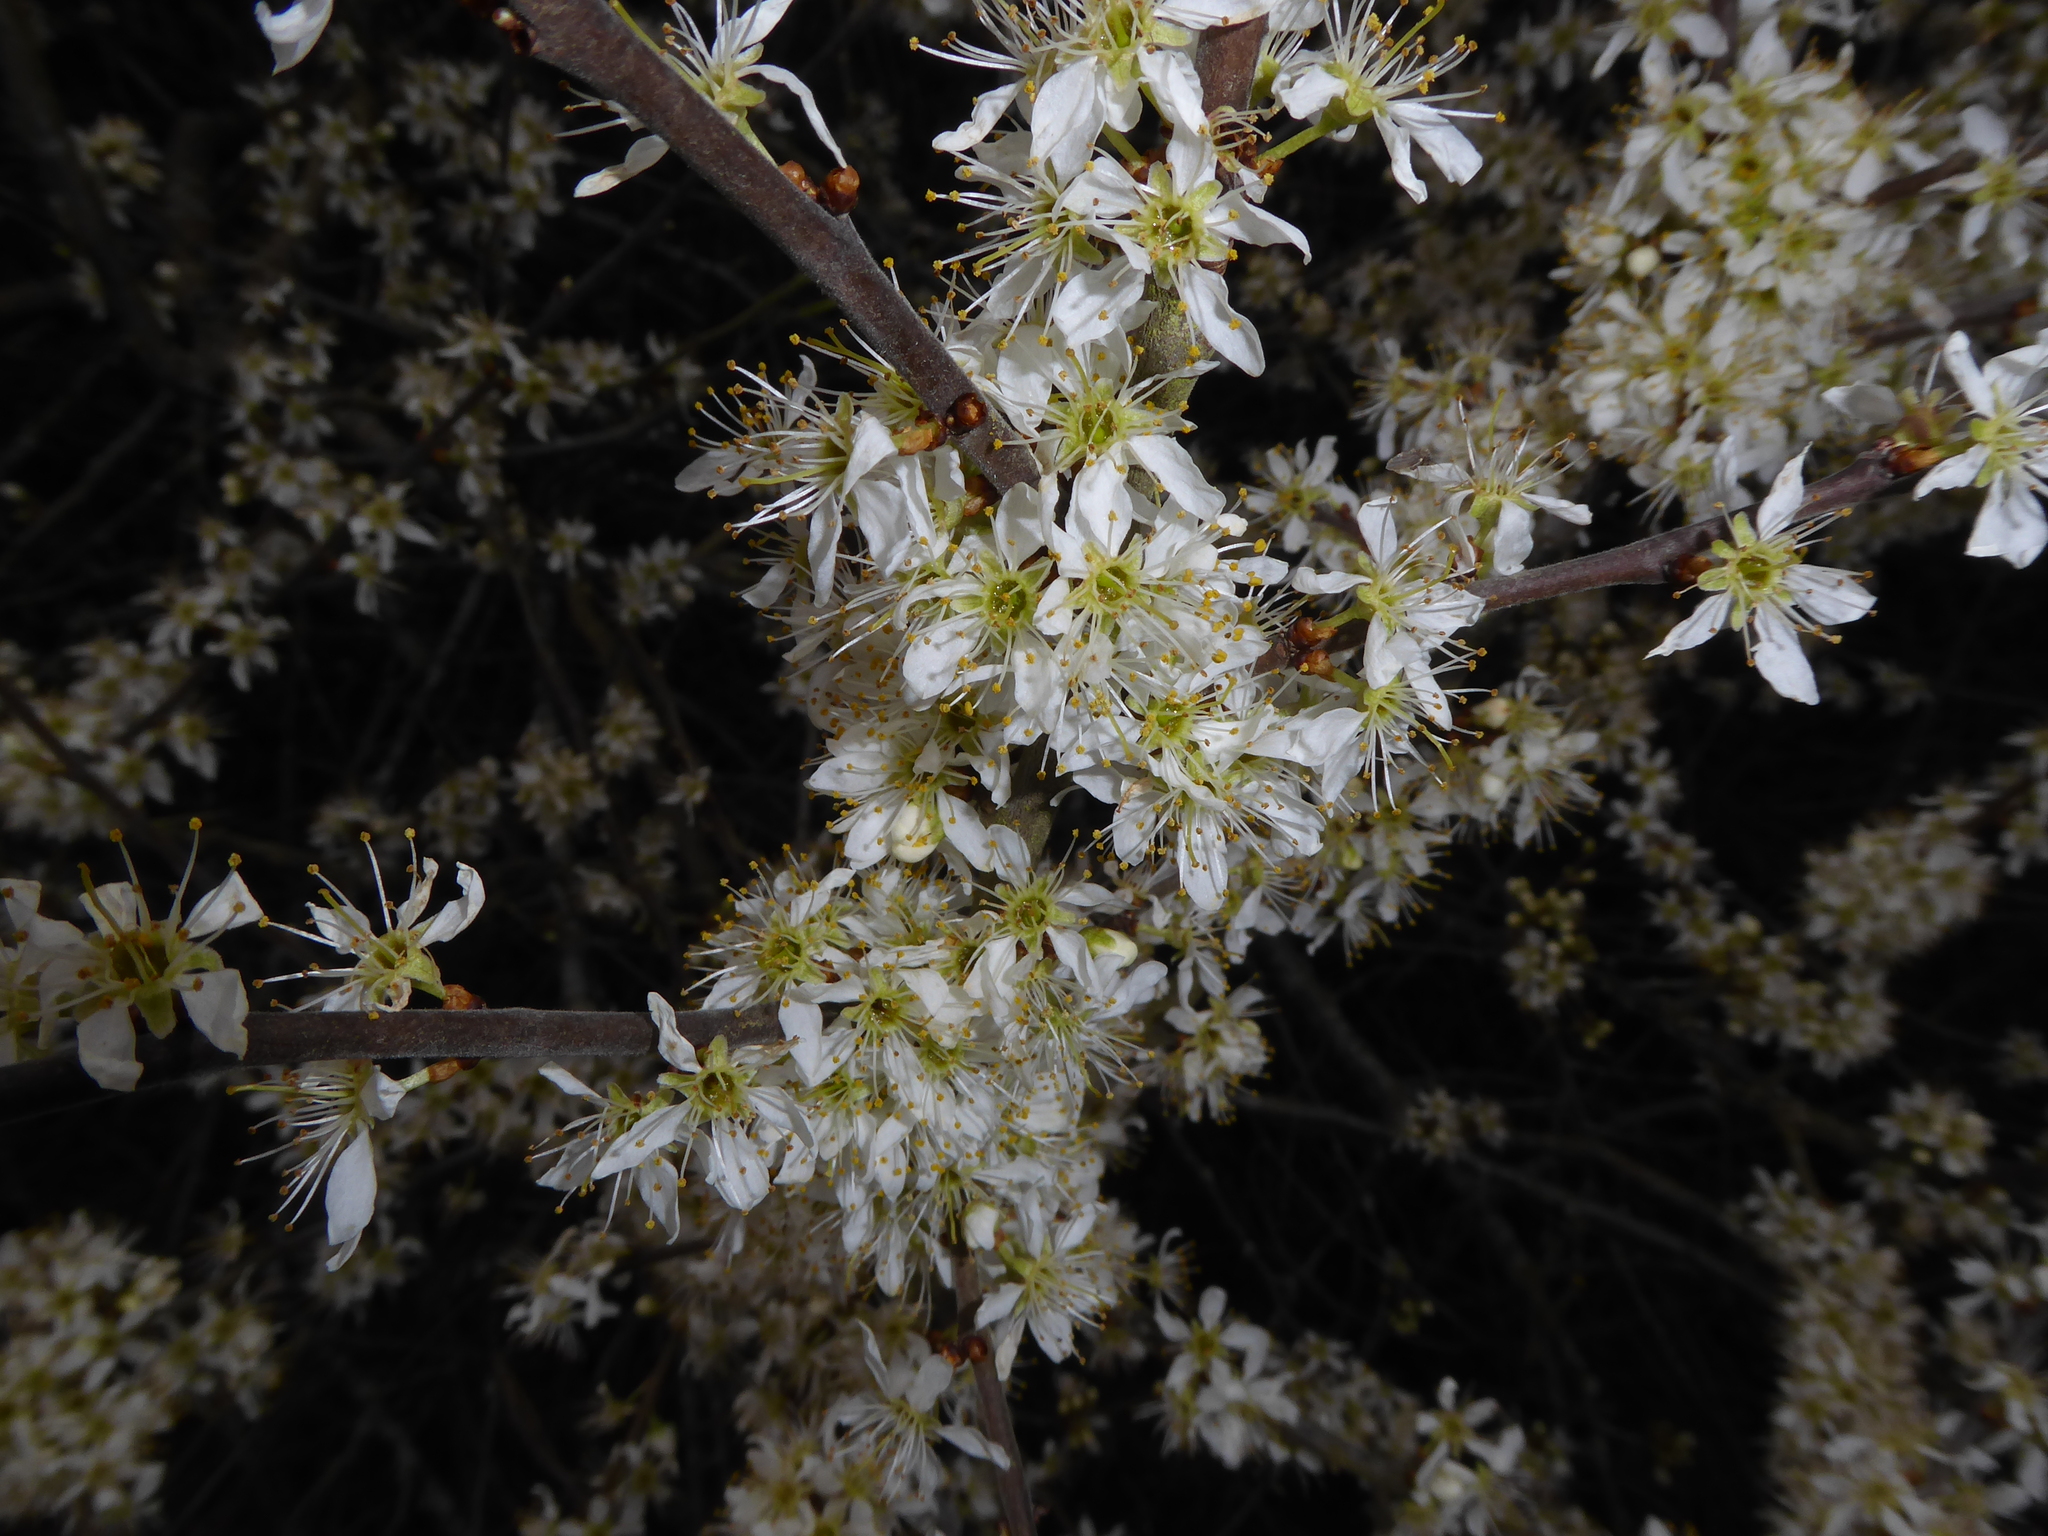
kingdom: Plantae
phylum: Tracheophyta
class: Magnoliopsida
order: Rosales
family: Rosaceae
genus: Prunus
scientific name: Prunus spinosa
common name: Blackthorn
